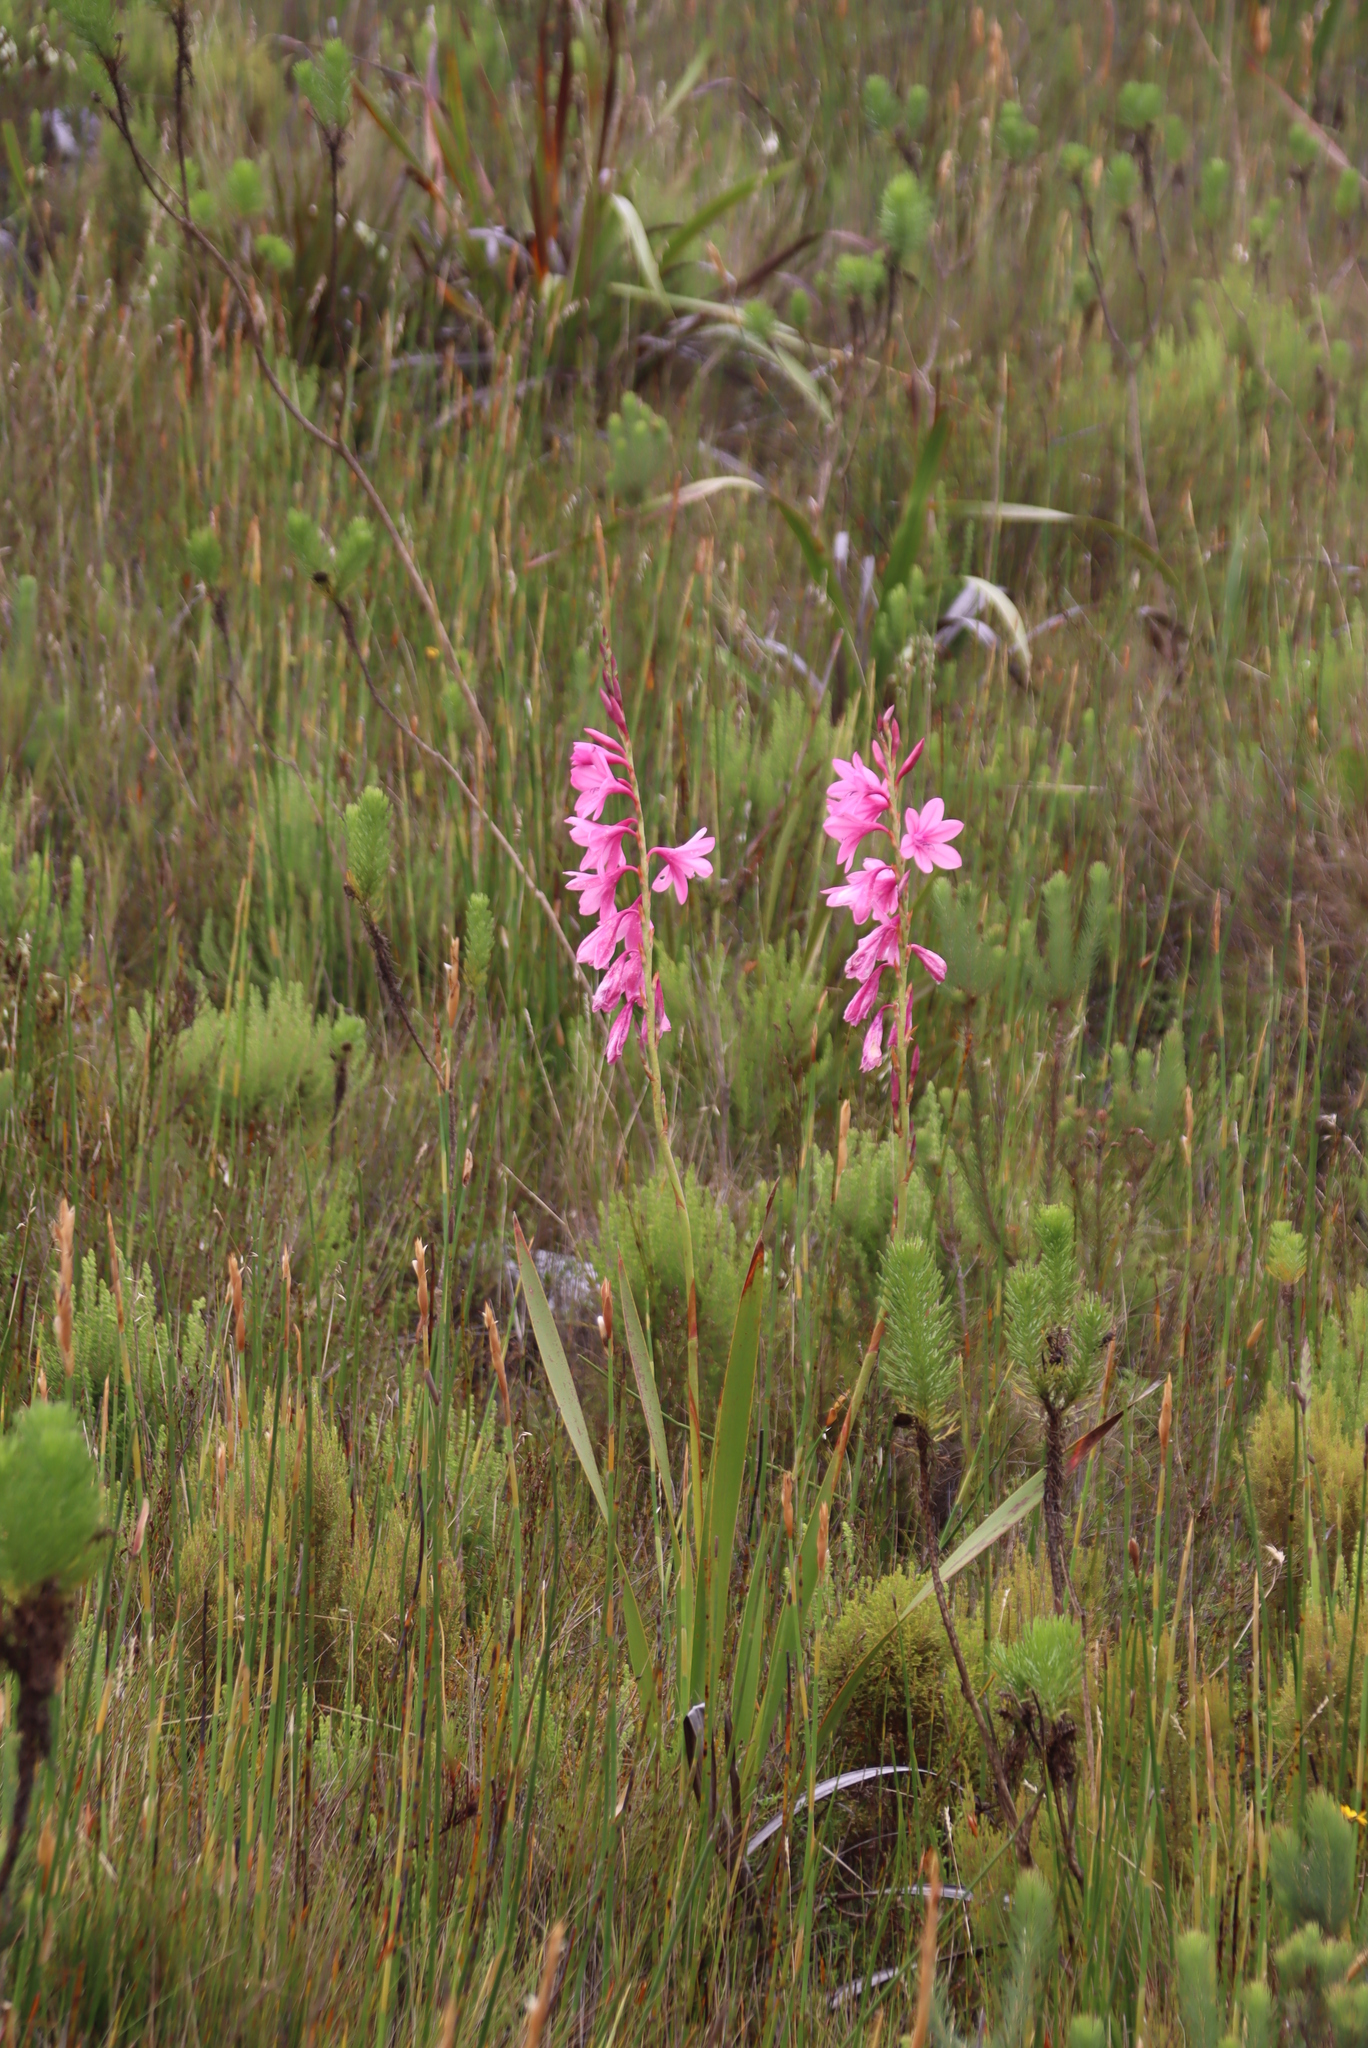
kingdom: Plantae
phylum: Tracheophyta
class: Liliopsida
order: Asparagales
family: Iridaceae
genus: Watsonia
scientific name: Watsonia borbonica
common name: Bugle-lily
